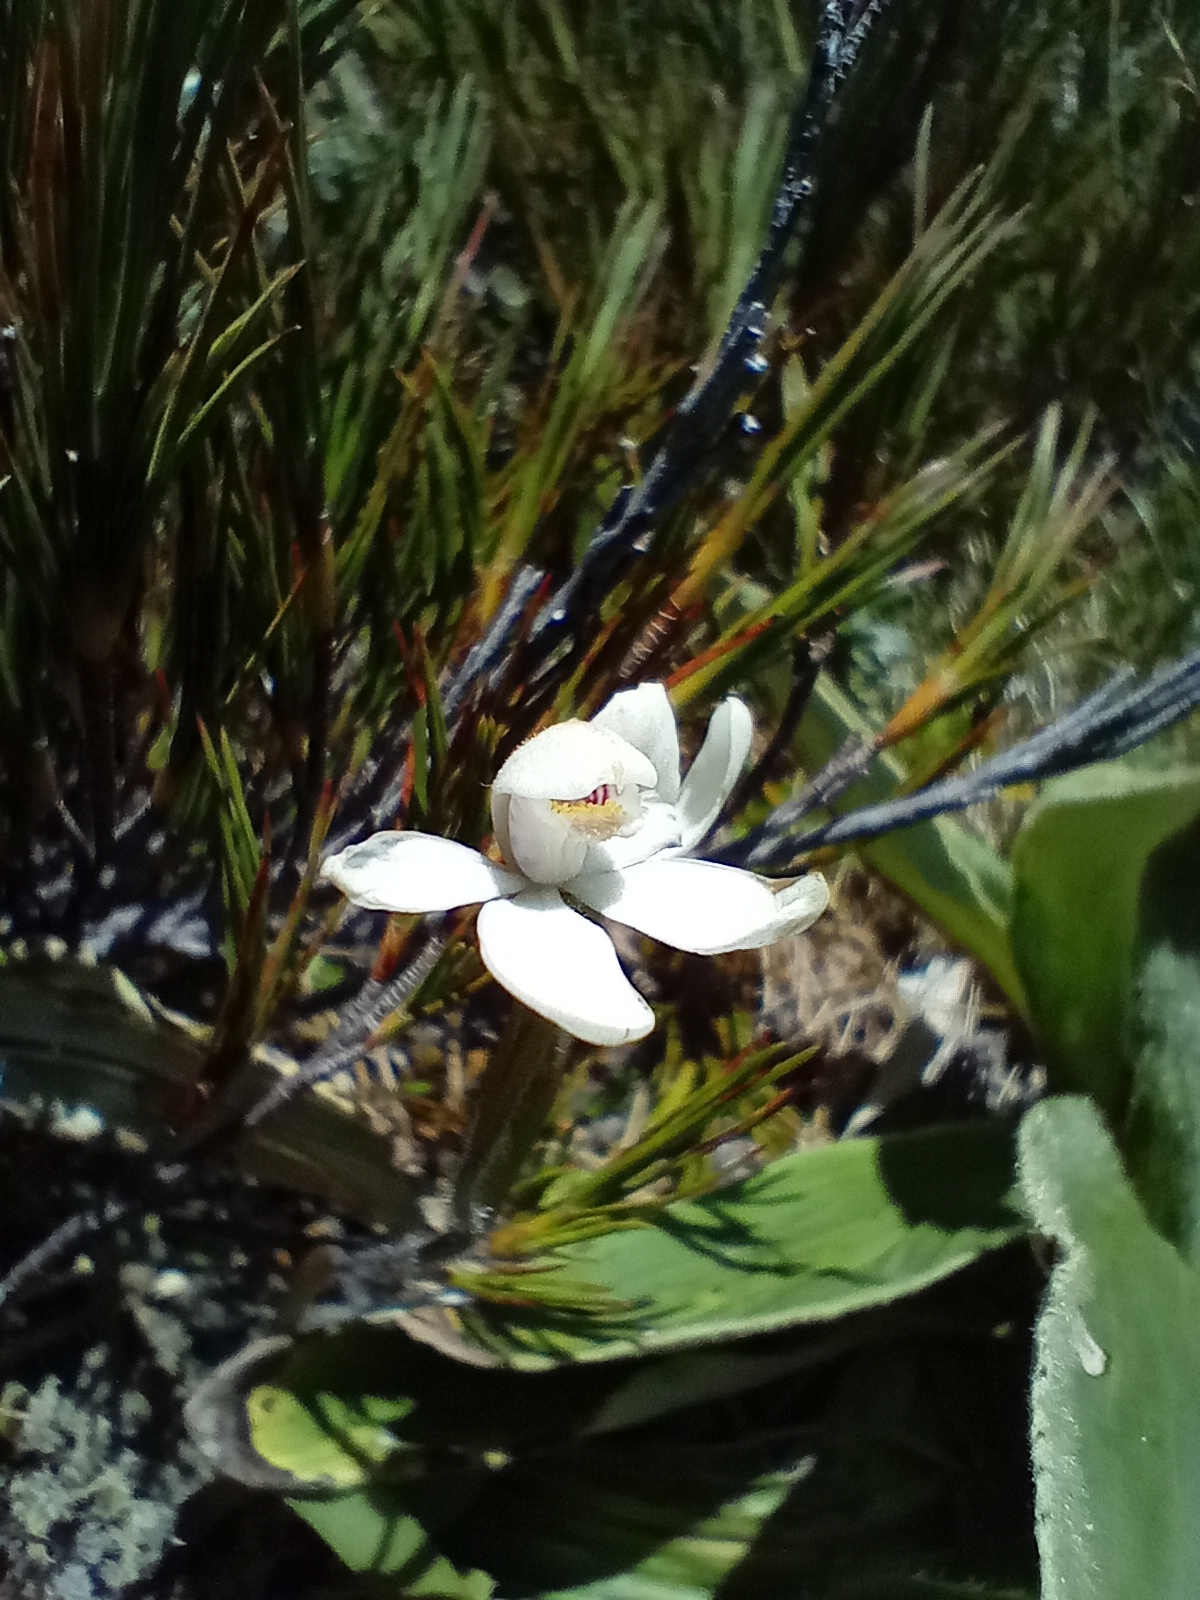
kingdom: Plantae
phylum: Tracheophyta
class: Liliopsida
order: Asparagales
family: Orchidaceae
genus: Caladenia
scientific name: Caladenia lyallii
